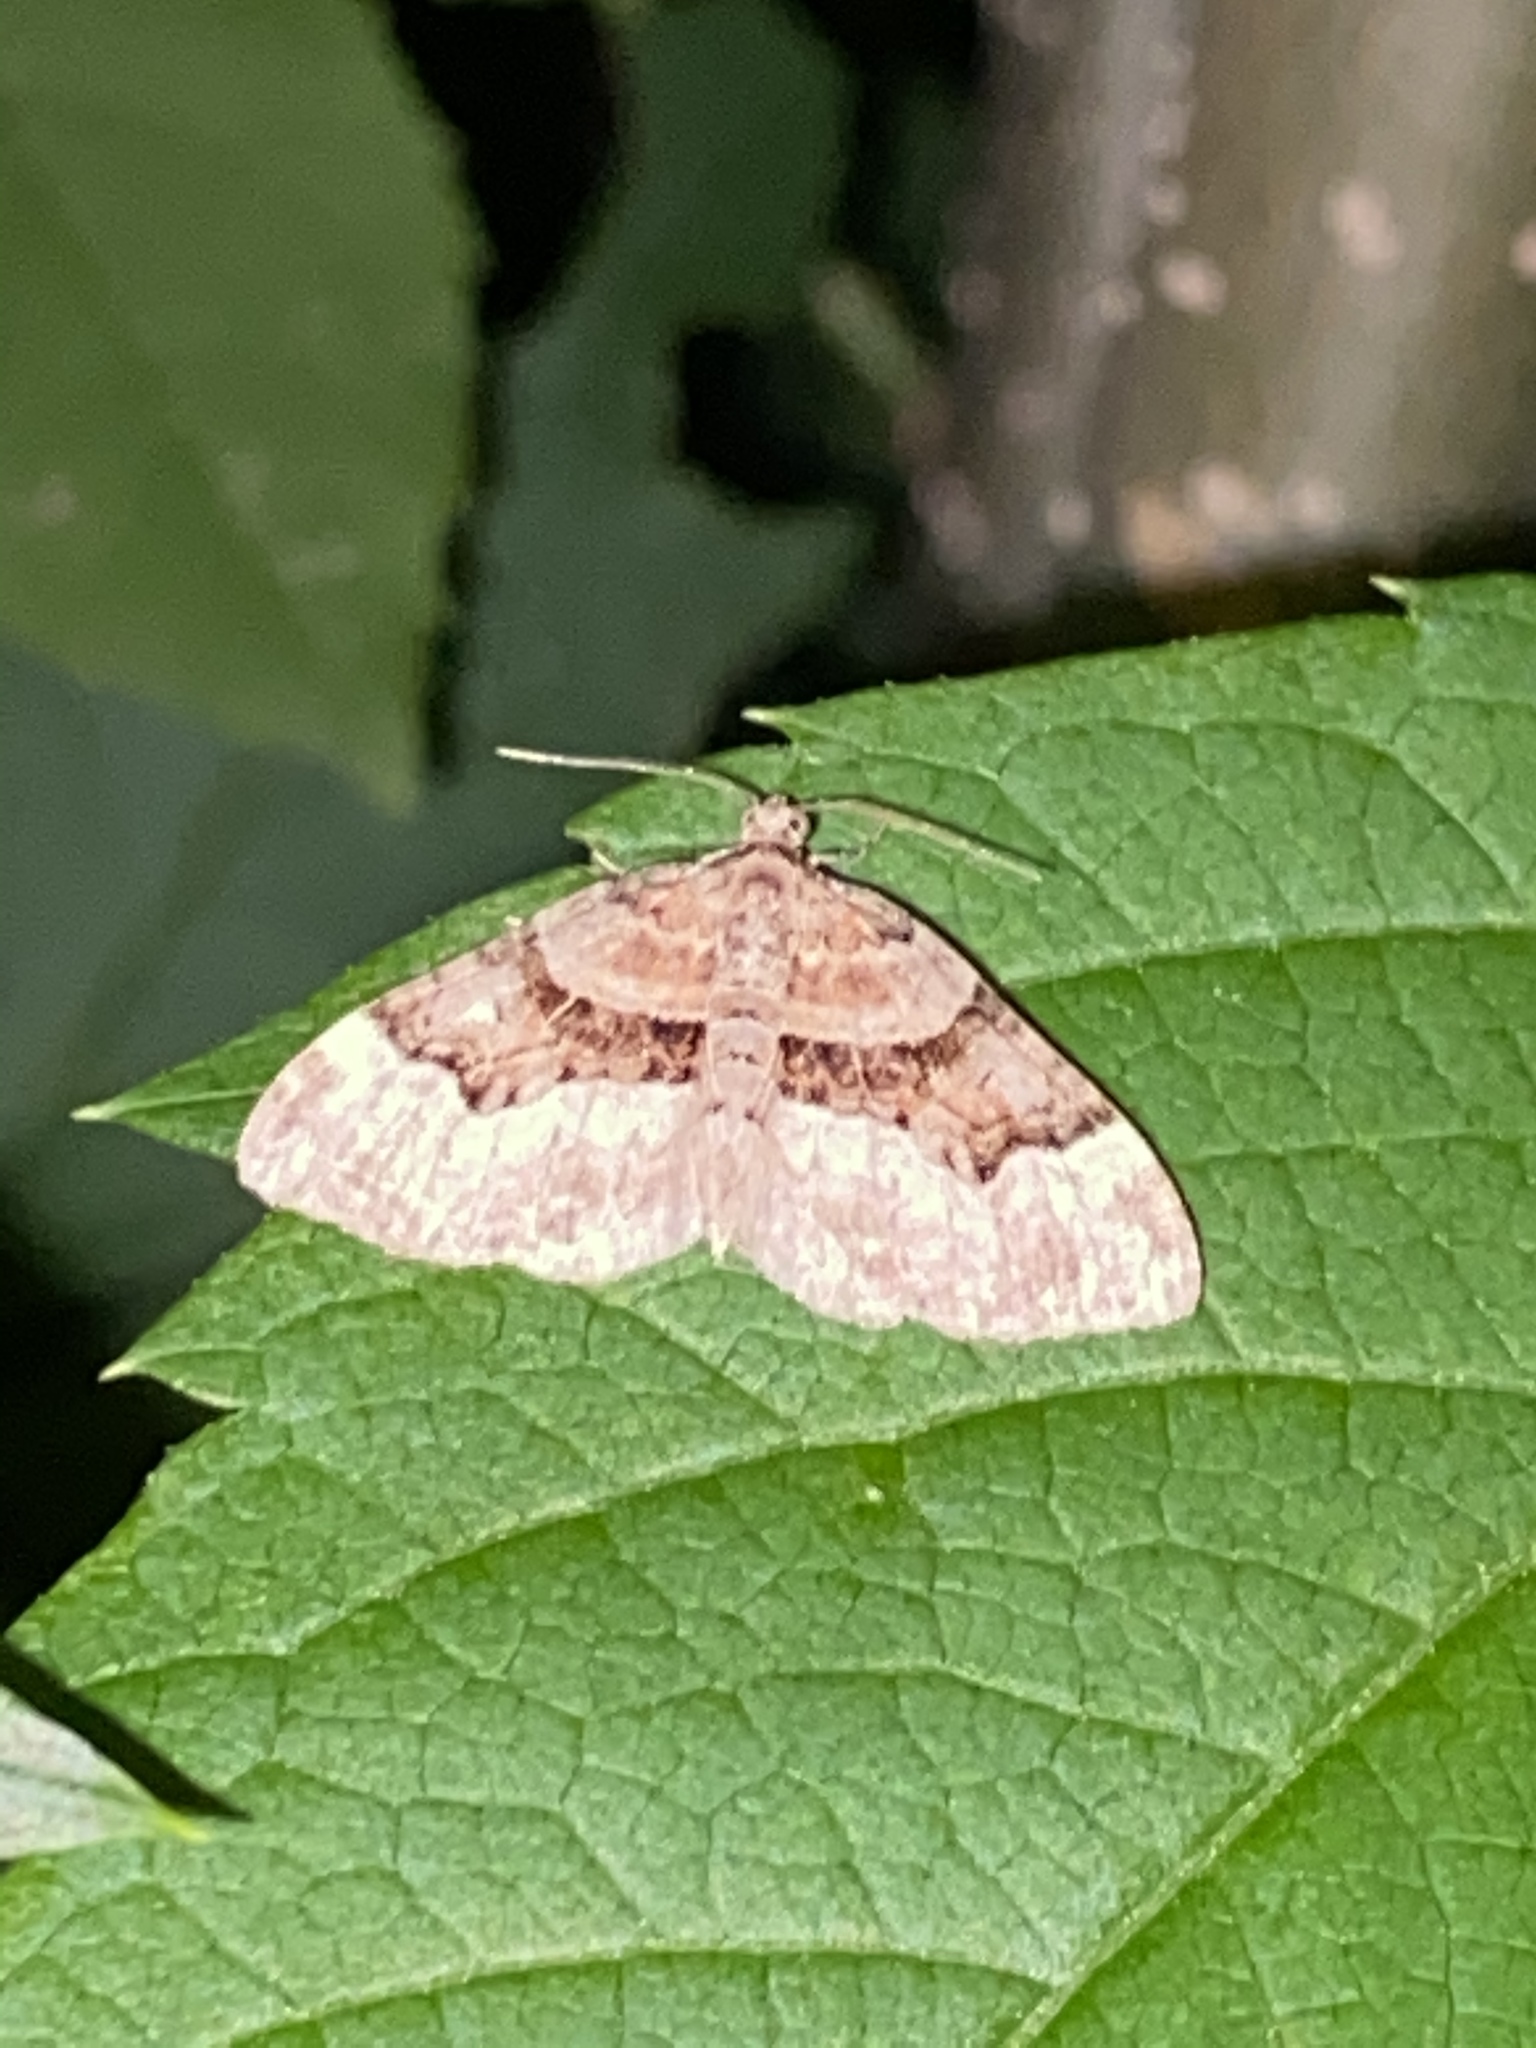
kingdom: Animalia
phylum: Arthropoda
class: Insecta
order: Lepidoptera
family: Geometridae
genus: Xanthorhoe
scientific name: Xanthorhoe lacustrata
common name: Toothed brown carpet
